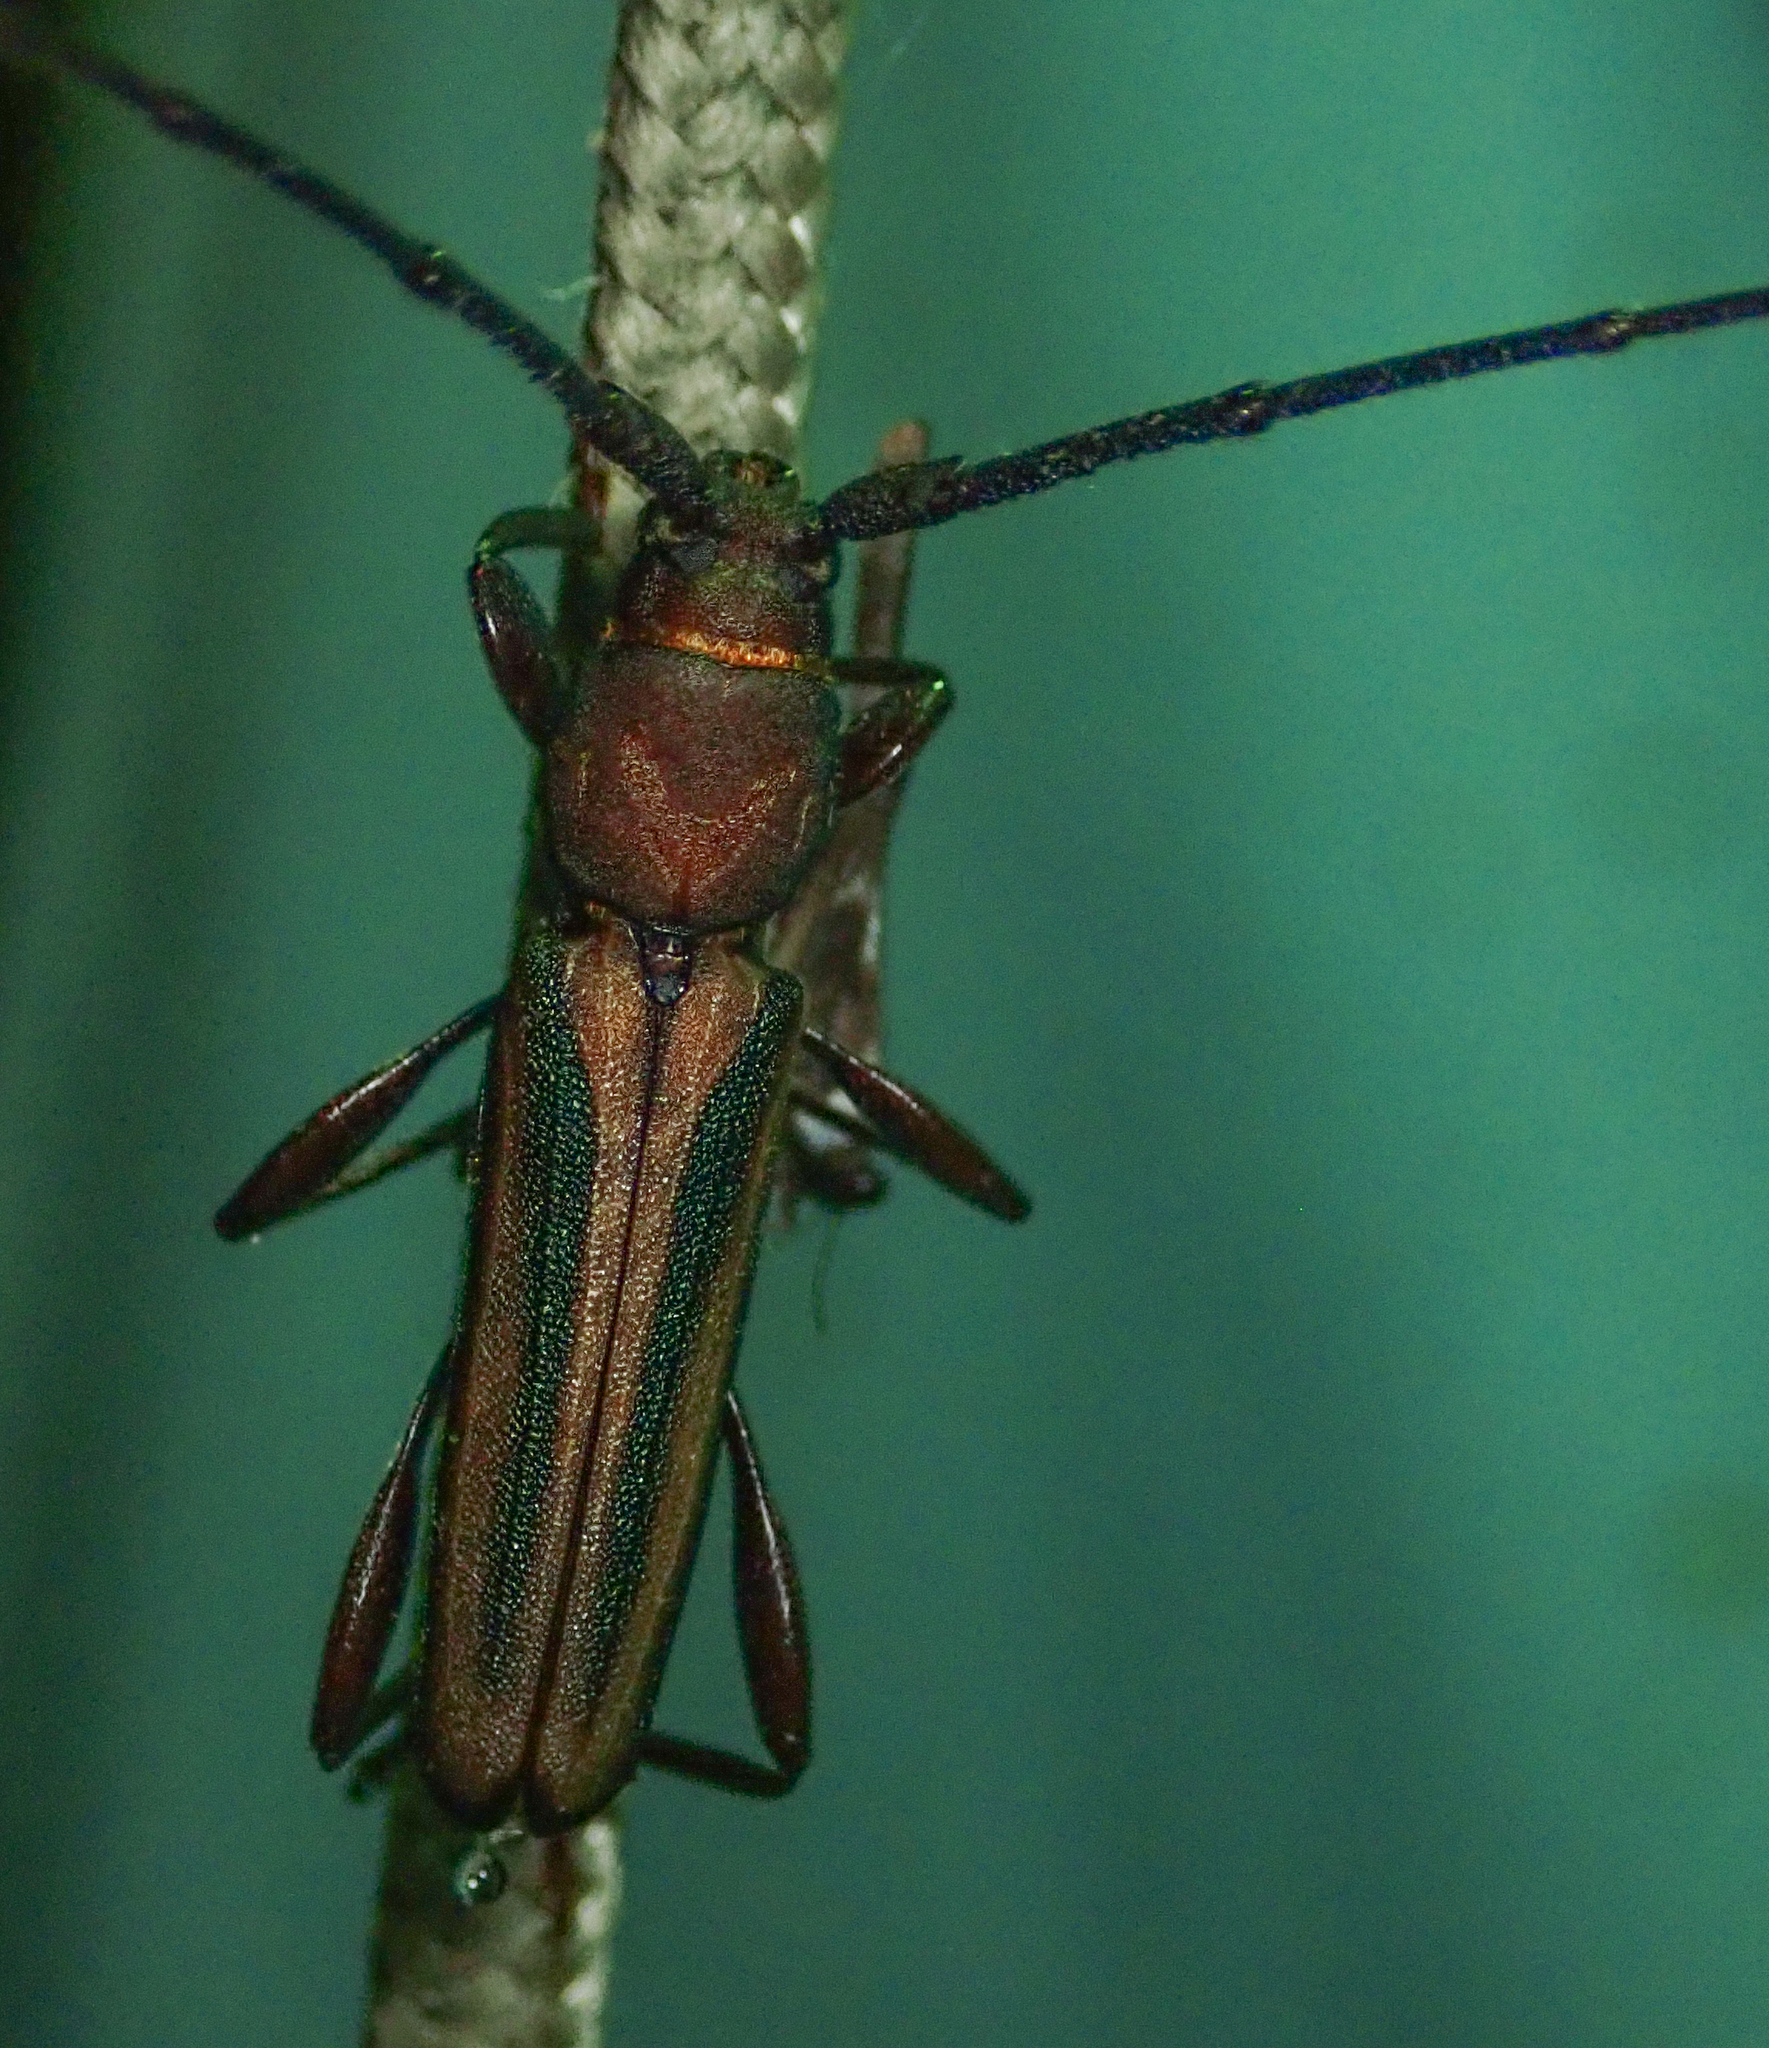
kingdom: Animalia
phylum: Arthropoda
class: Insecta
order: Coleoptera
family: Cerambycidae
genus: Xystrocera
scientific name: Xystrocera dispar
